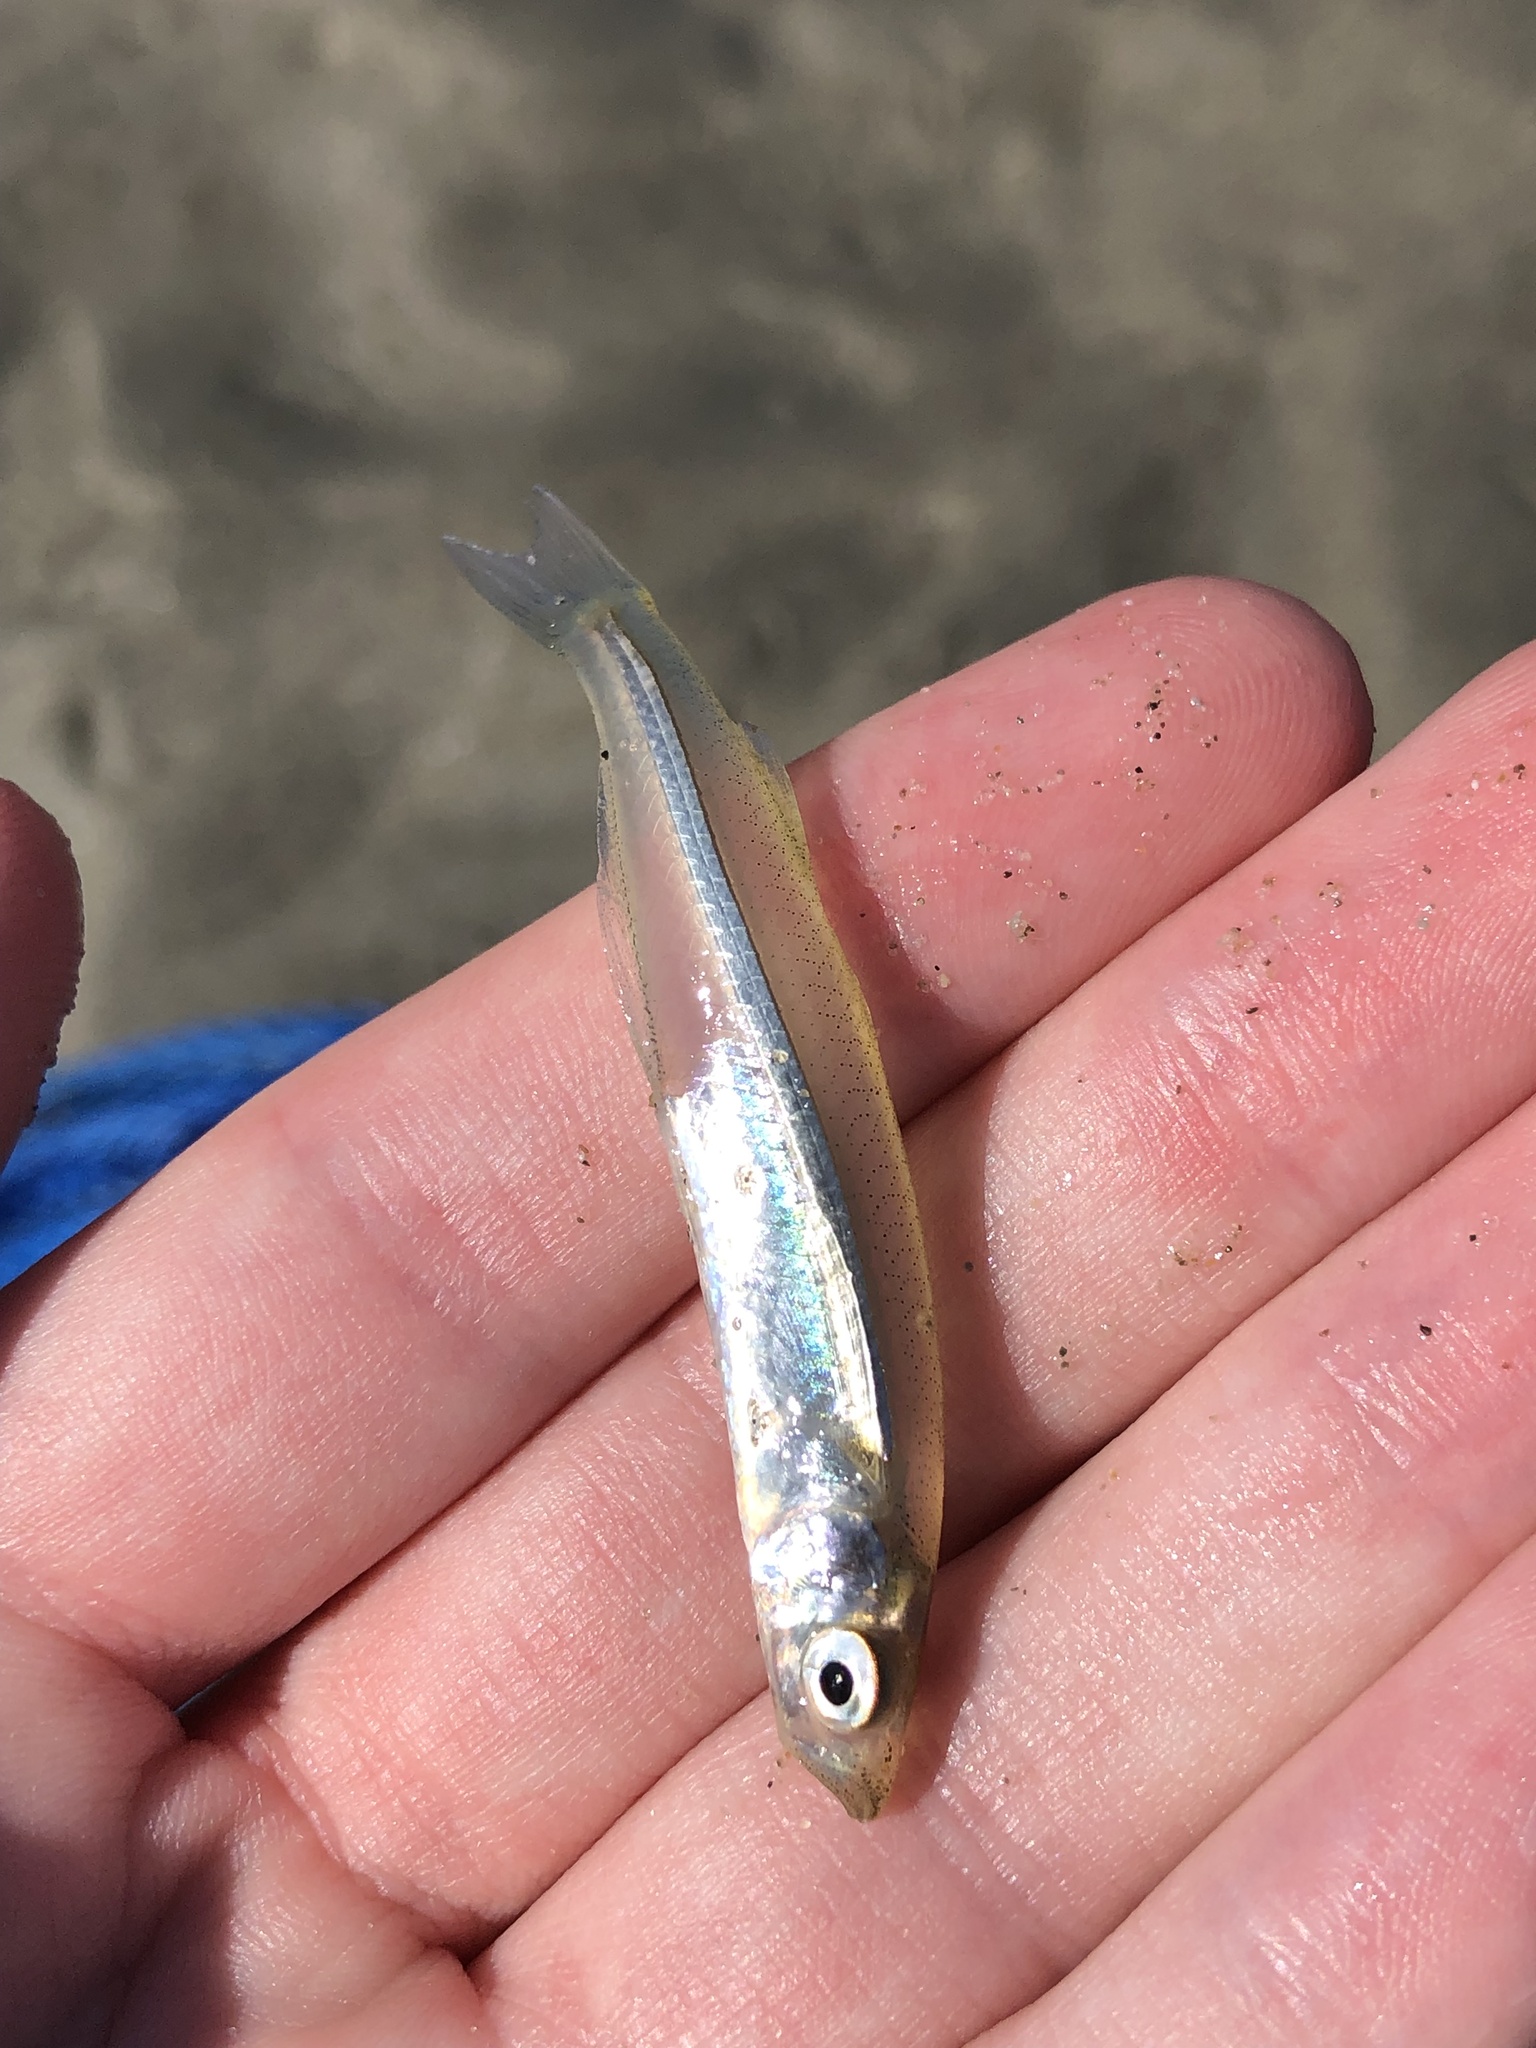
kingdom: Animalia
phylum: Chordata
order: Atheriniformes
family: Atherinopsidae
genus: Menidia
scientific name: Menidia menidia
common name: Atlantic silverside
